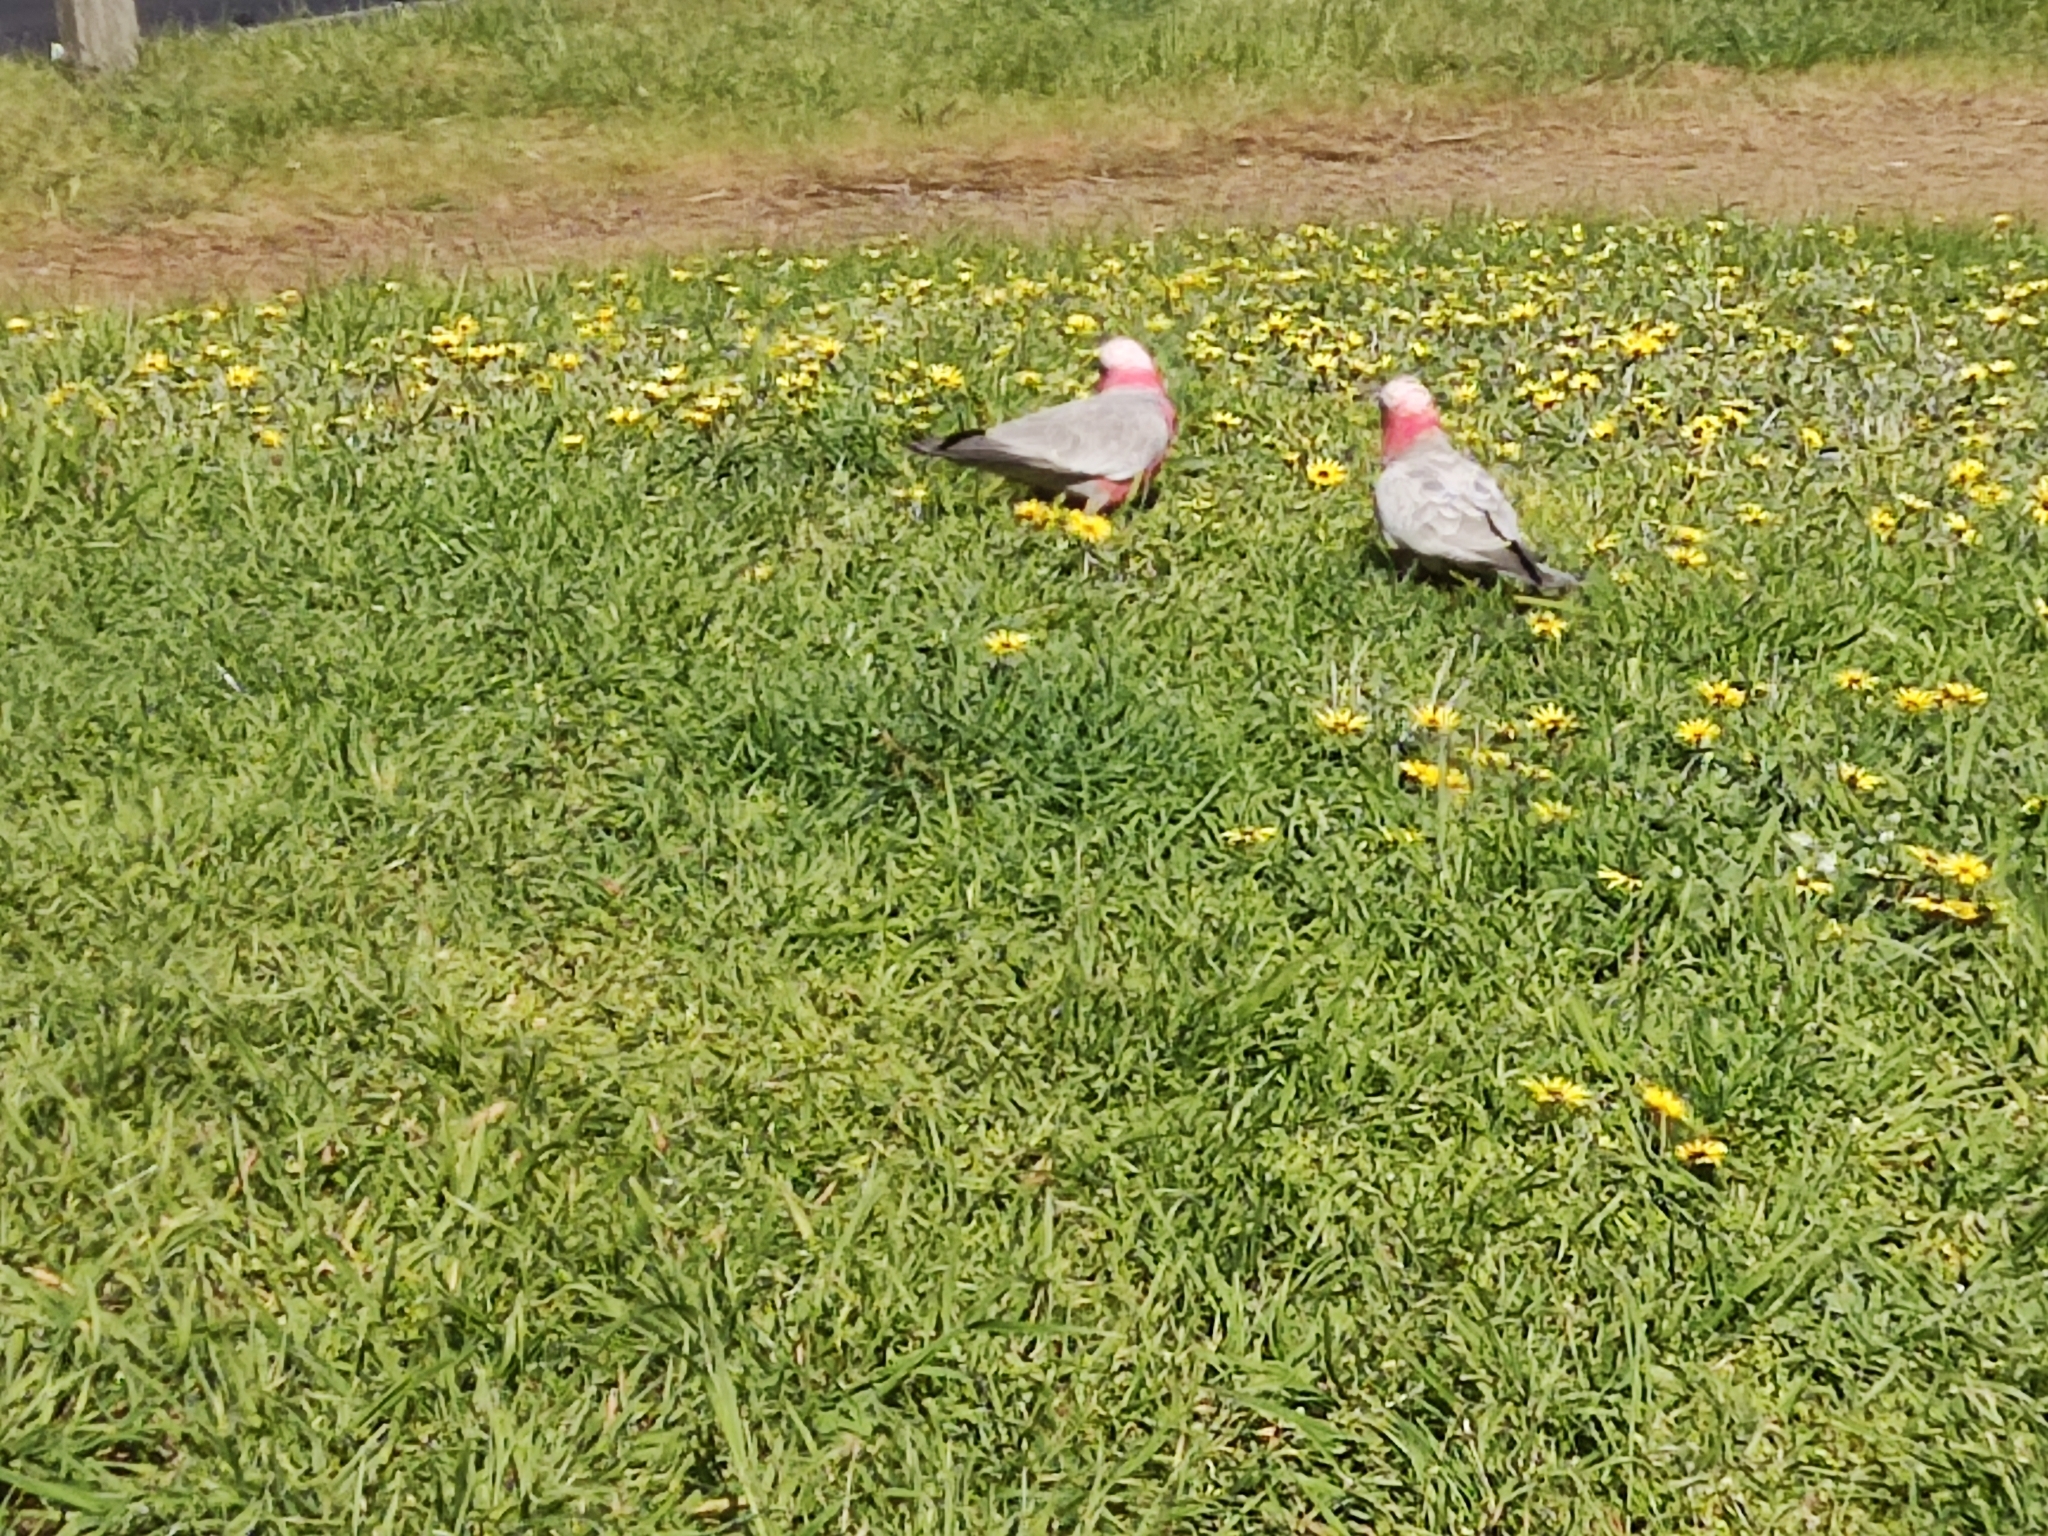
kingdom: Animalia
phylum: Chordata
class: Aves
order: Psittaciformes
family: Psittacidae
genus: Eolophus
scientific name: Eolophus roseicapilla
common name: Galah
